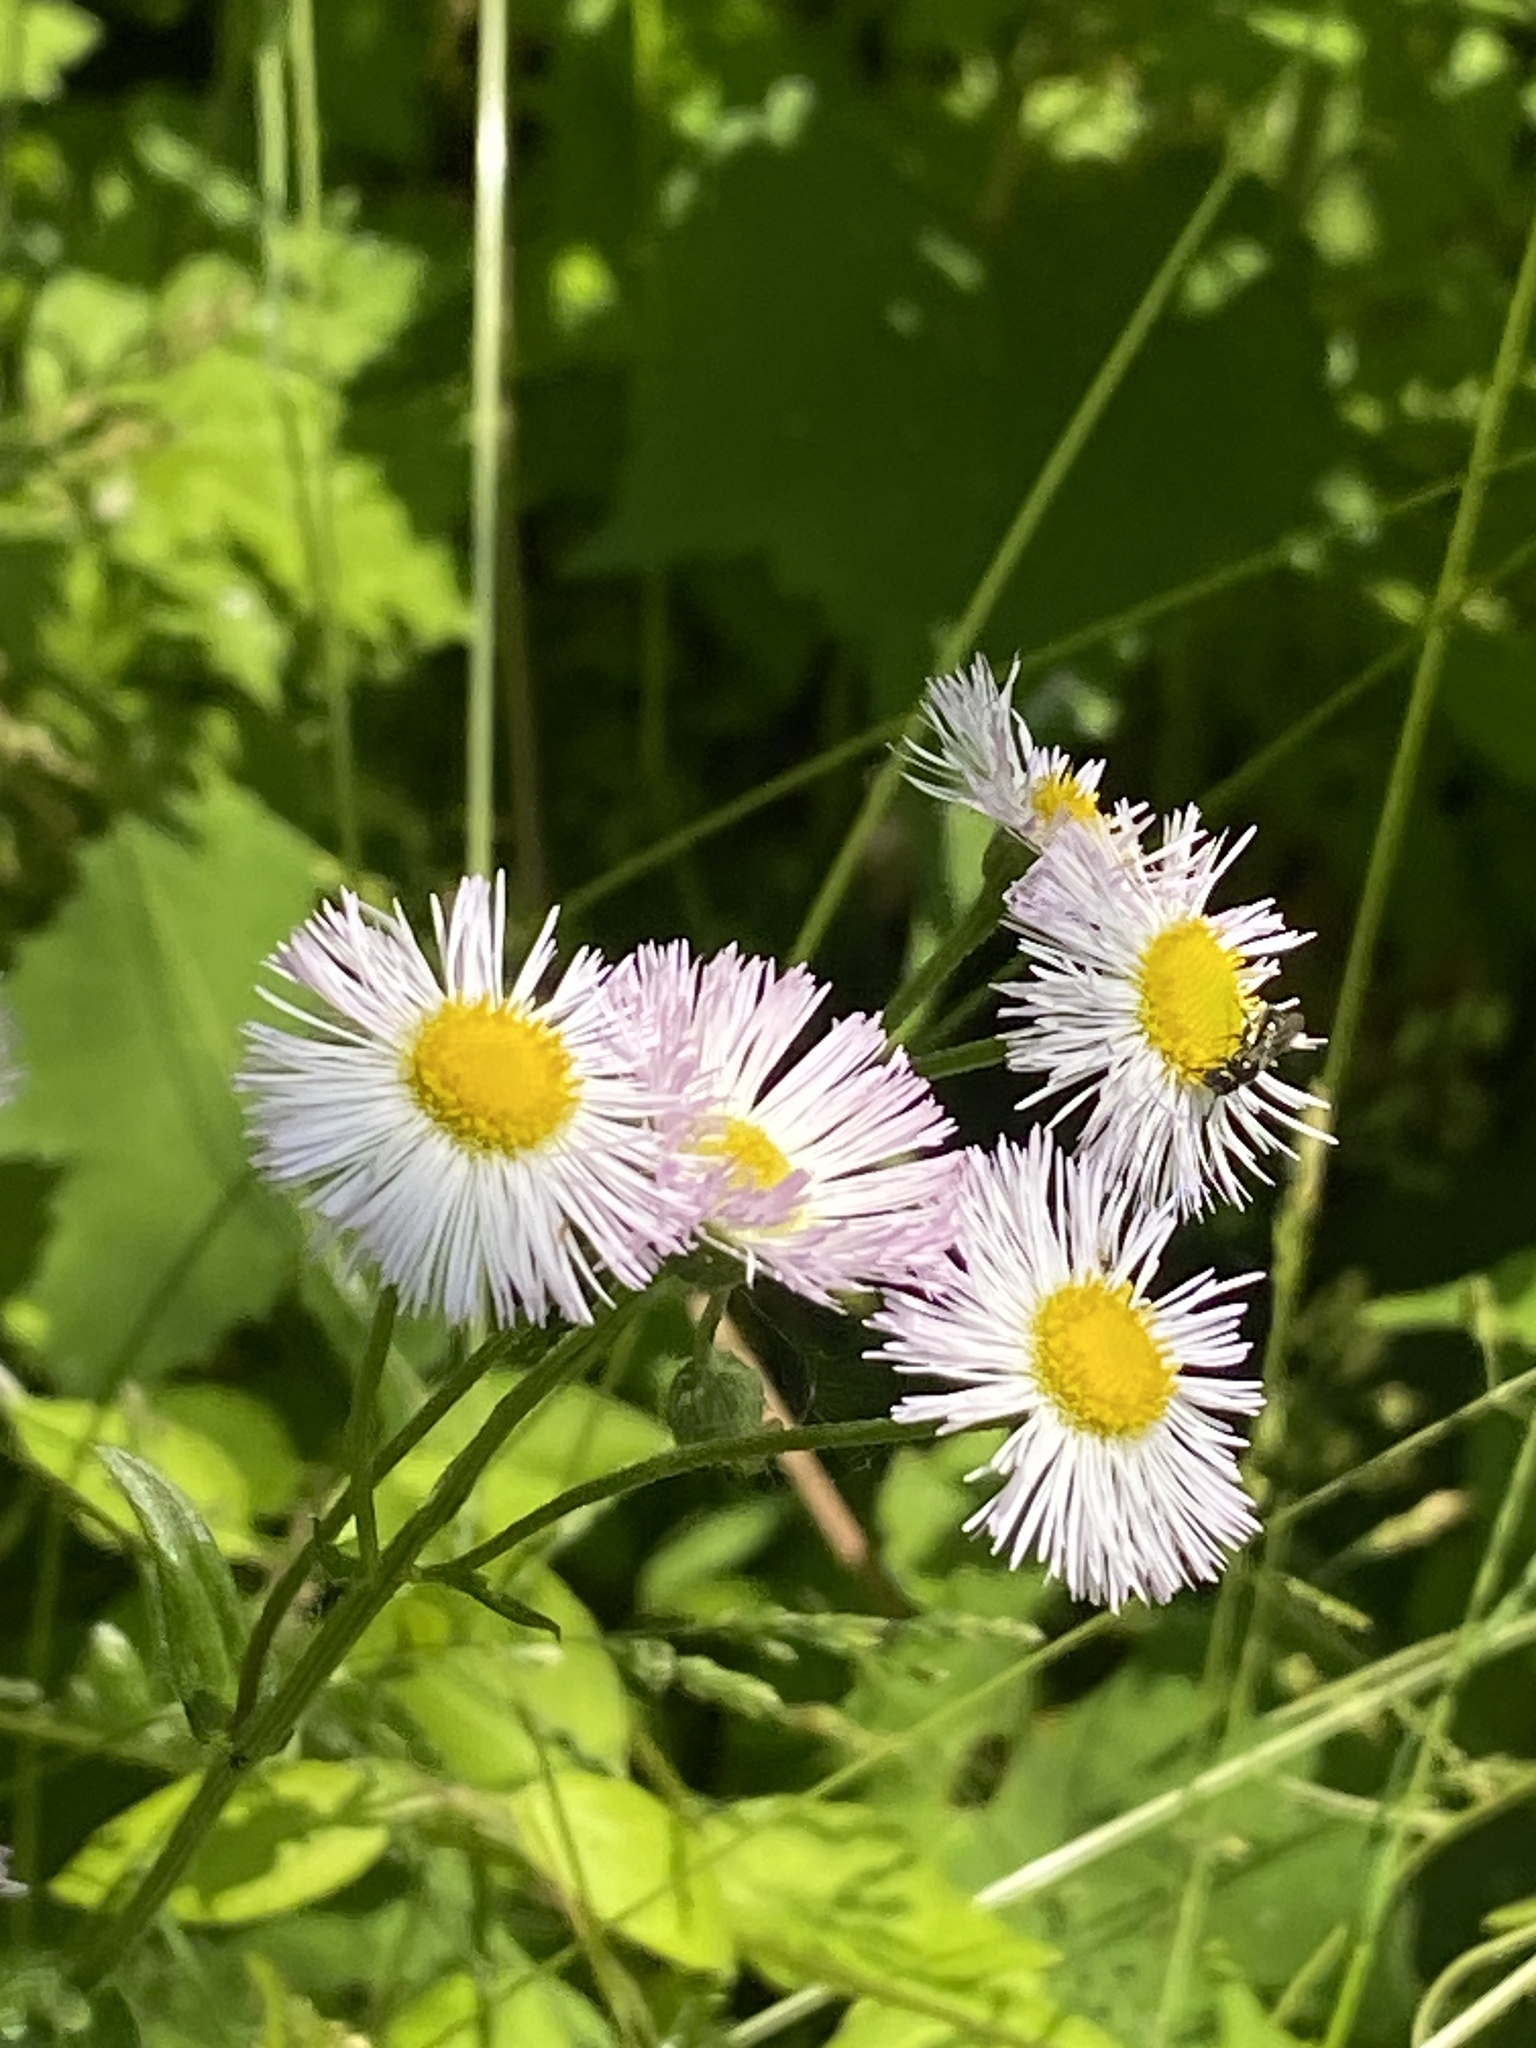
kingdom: Plantae
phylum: Tracheophyta
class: Magnoliopsida
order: Asterales
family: Asteraceae
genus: Erigeron
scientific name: Erigeron philadelphicus
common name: Robin's-plantain
